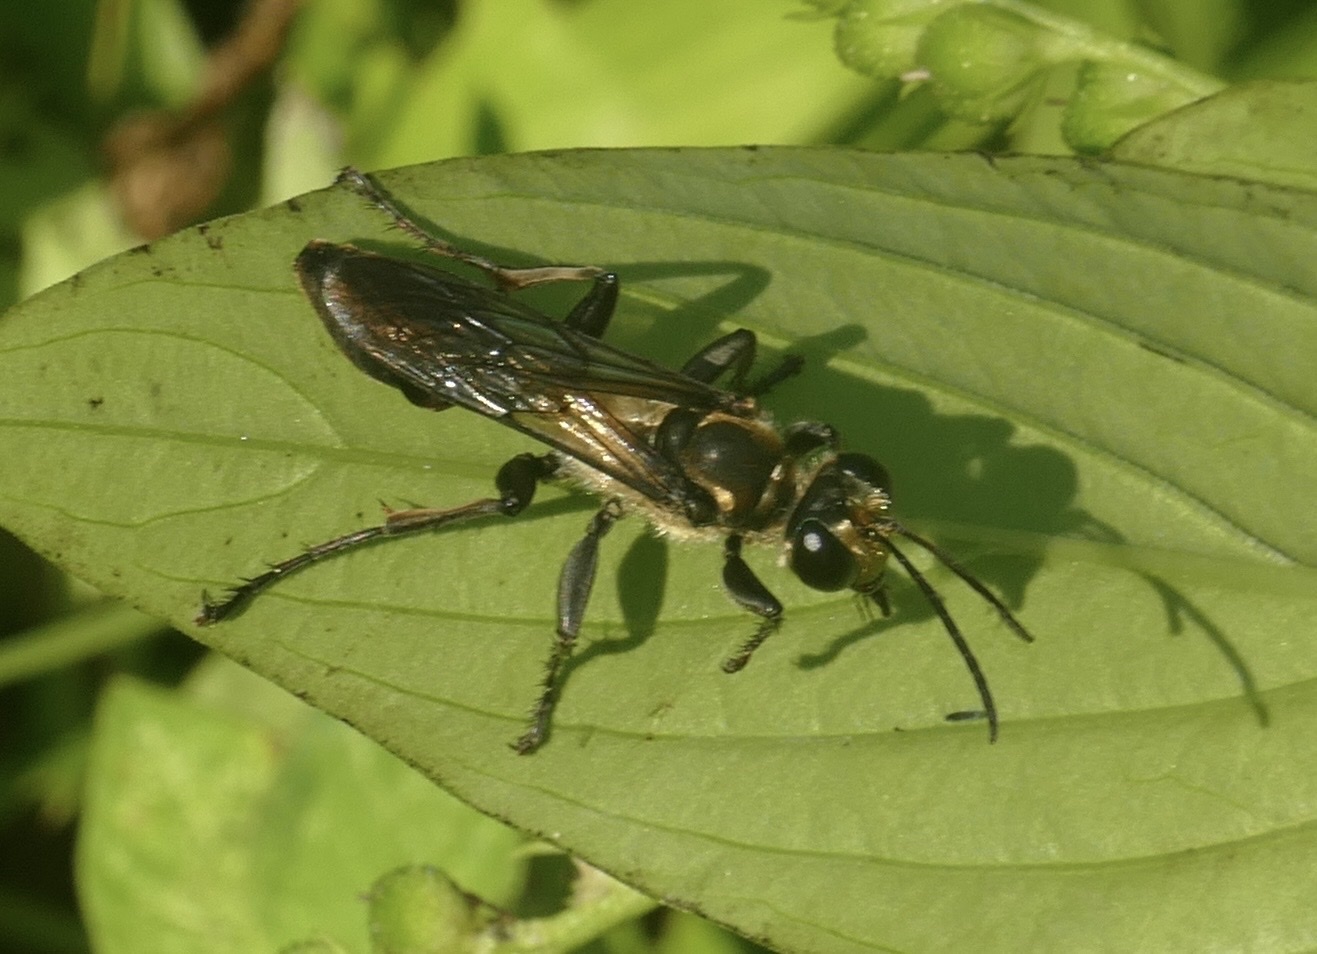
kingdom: Animalia
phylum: Arthropoda
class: Insecta
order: Hymenoptera
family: Sphecidae
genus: Sphex
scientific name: Sphex cognatus
